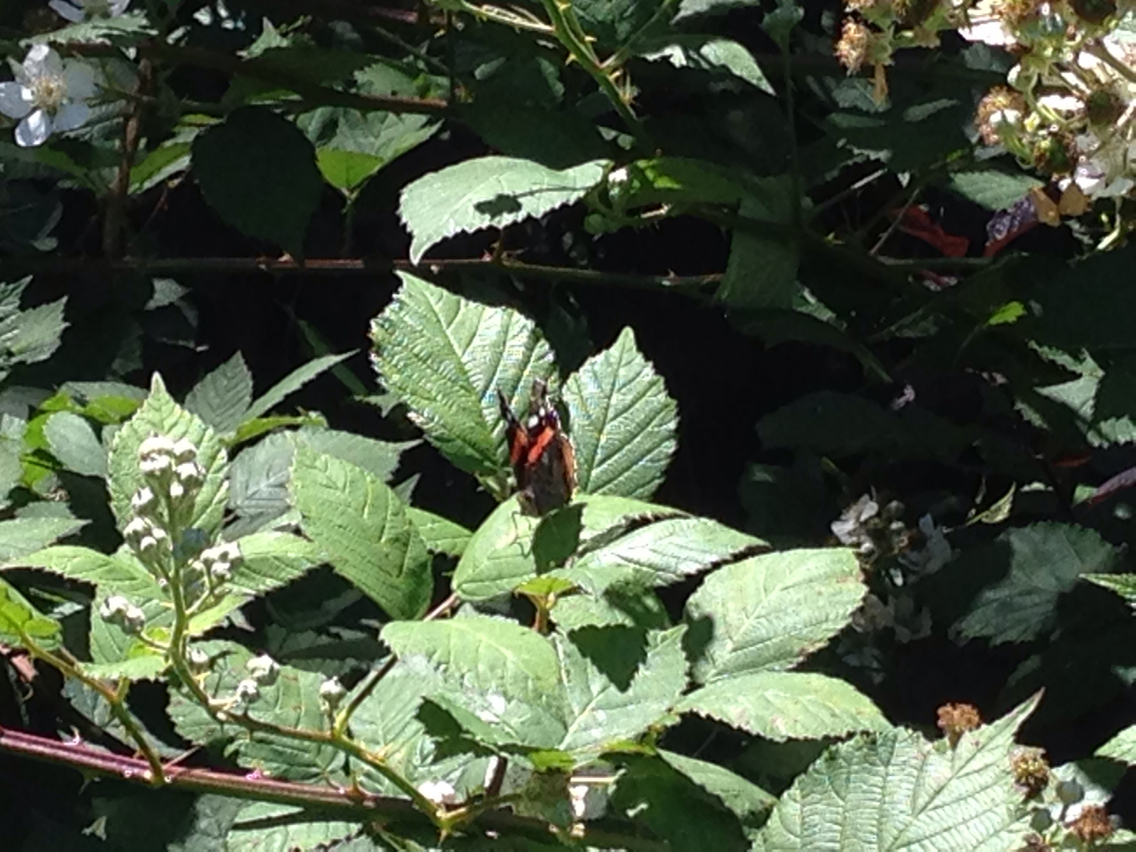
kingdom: Animalia
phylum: Arthropoda
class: Insecta
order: Lepidoptera
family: Nymphalidae
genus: Vanessa
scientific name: Vanessa atalanta
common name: Red admiral
